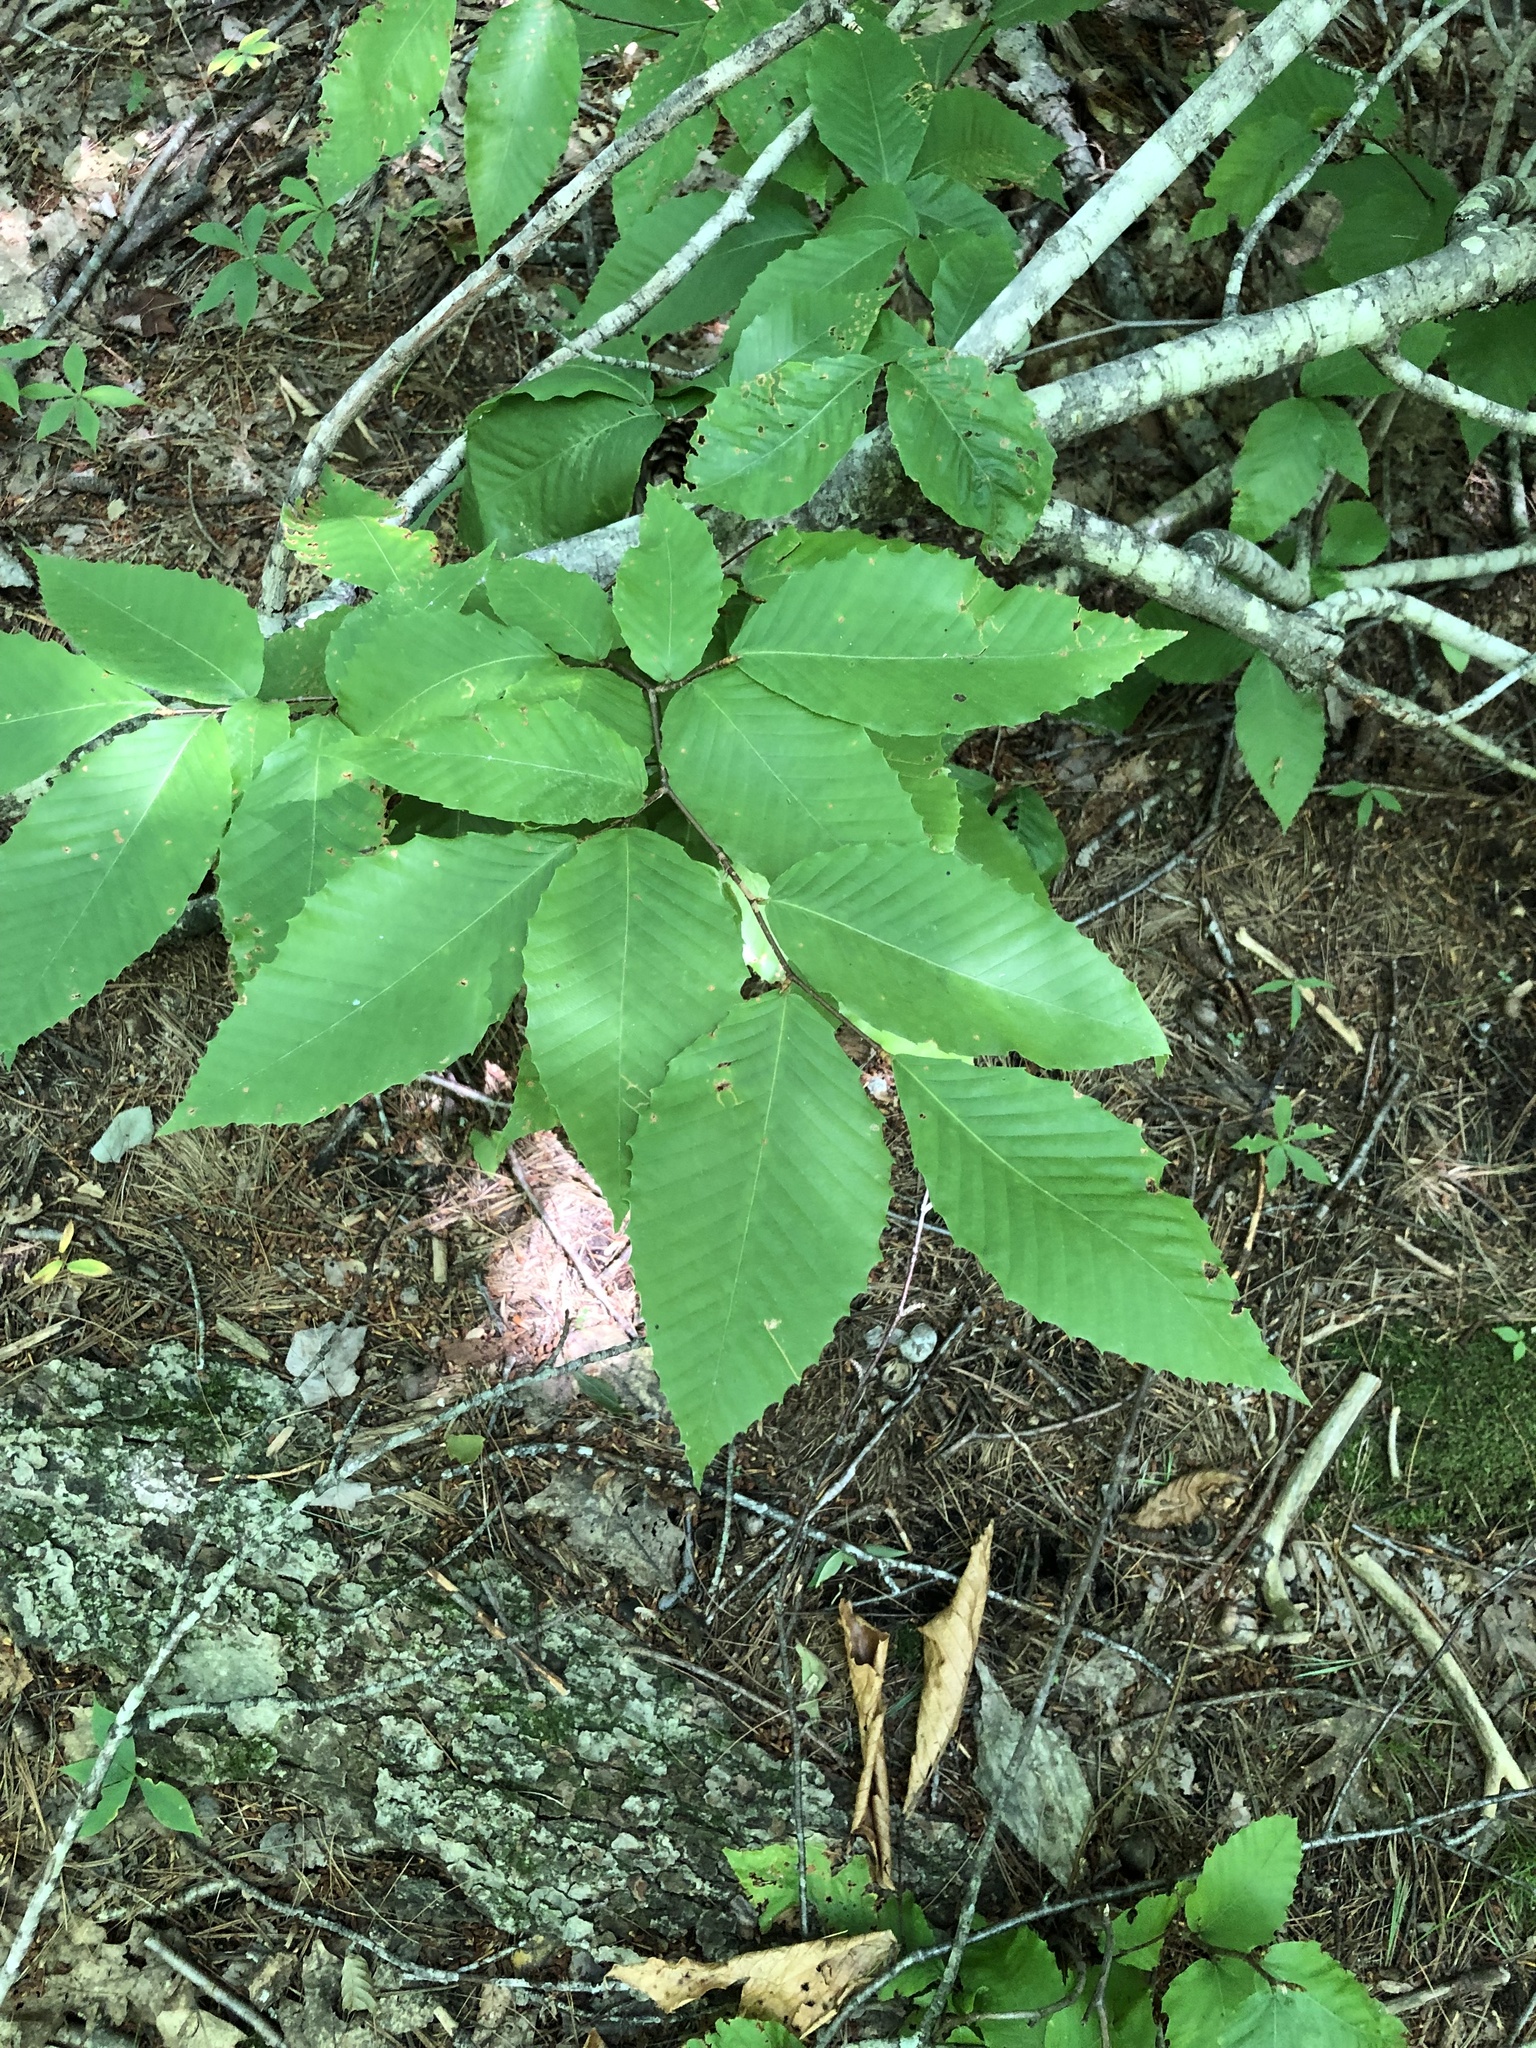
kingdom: Plantae
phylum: Tracheophyta
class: Magnoliopsida
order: Fagales
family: Fagaceae
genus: Fagus
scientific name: Fagus grandifolia
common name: American beech
